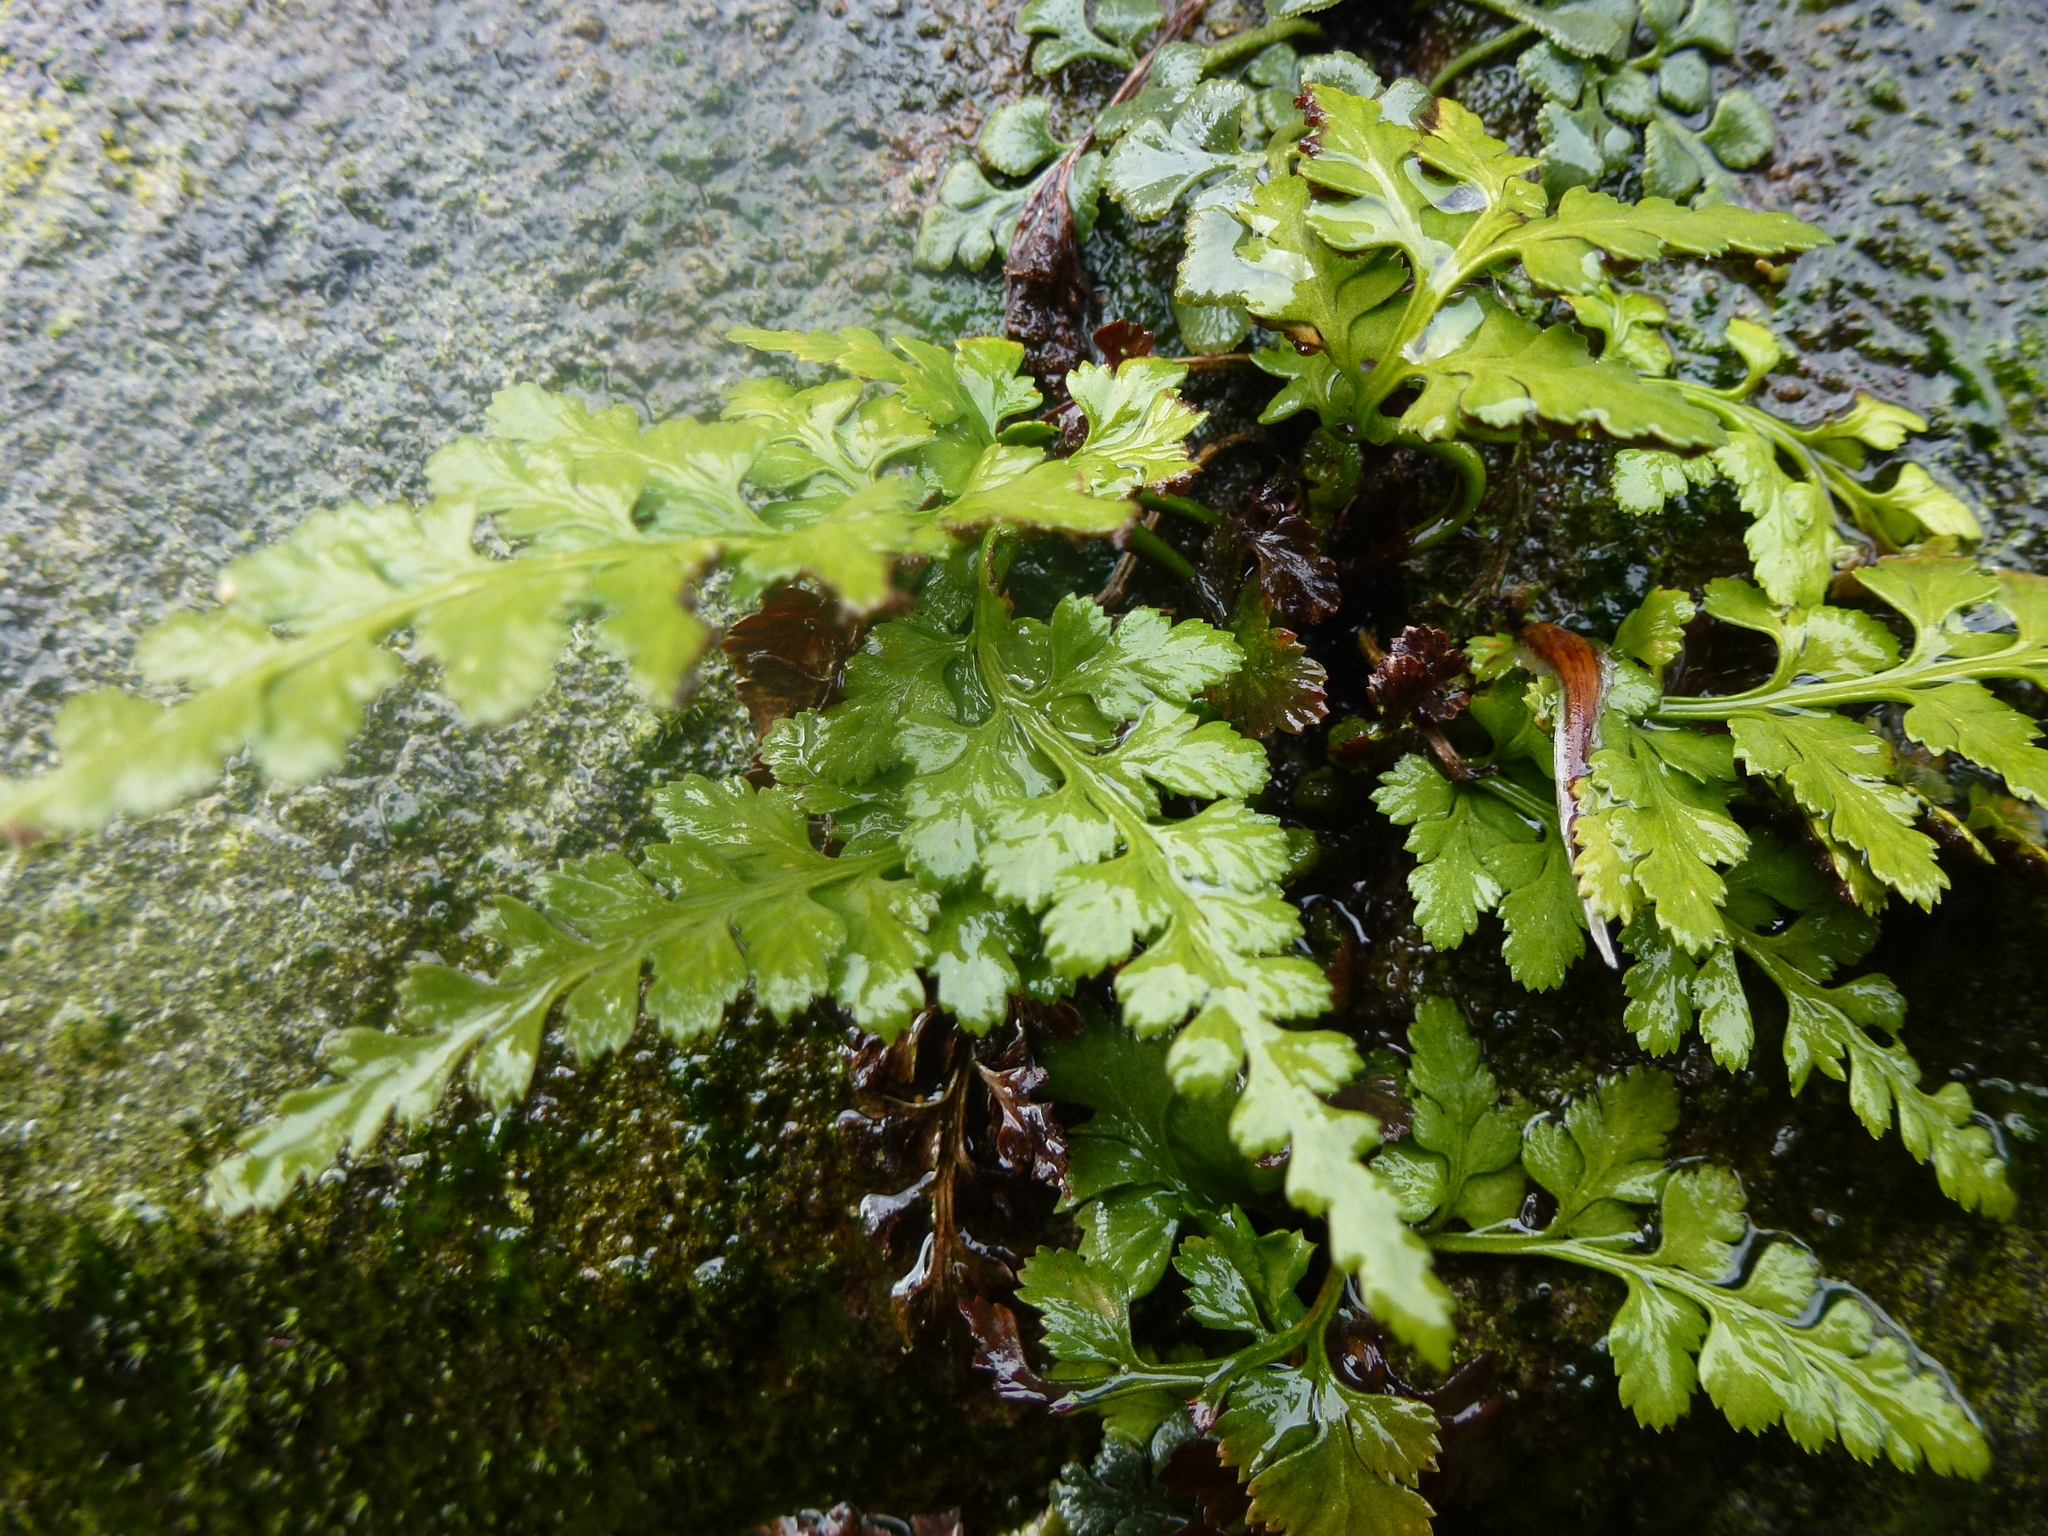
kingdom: Plantae
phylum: Tracheophyta
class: Polypodiopsida
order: Polypodiales
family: Aspleniaceae
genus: Asplenium
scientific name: Asplenium adiantum-nigrum
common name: Black spleenwort
